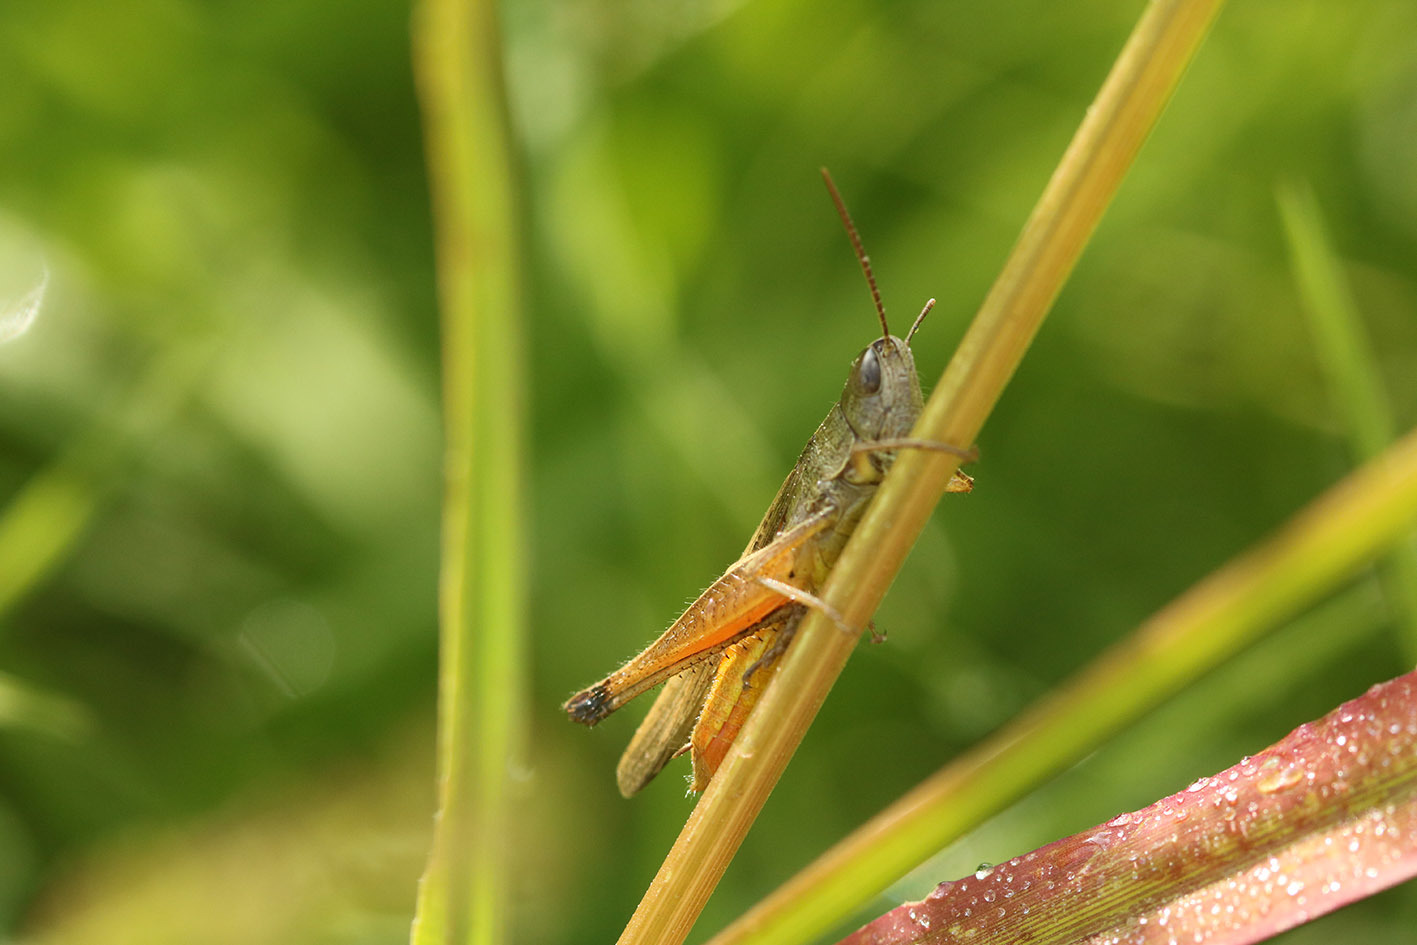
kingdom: Animalia
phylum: Arthropoda
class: Insecta
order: Orthoptera
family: Acrididae
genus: Amblytropidia
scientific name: Amblytropidia australis
